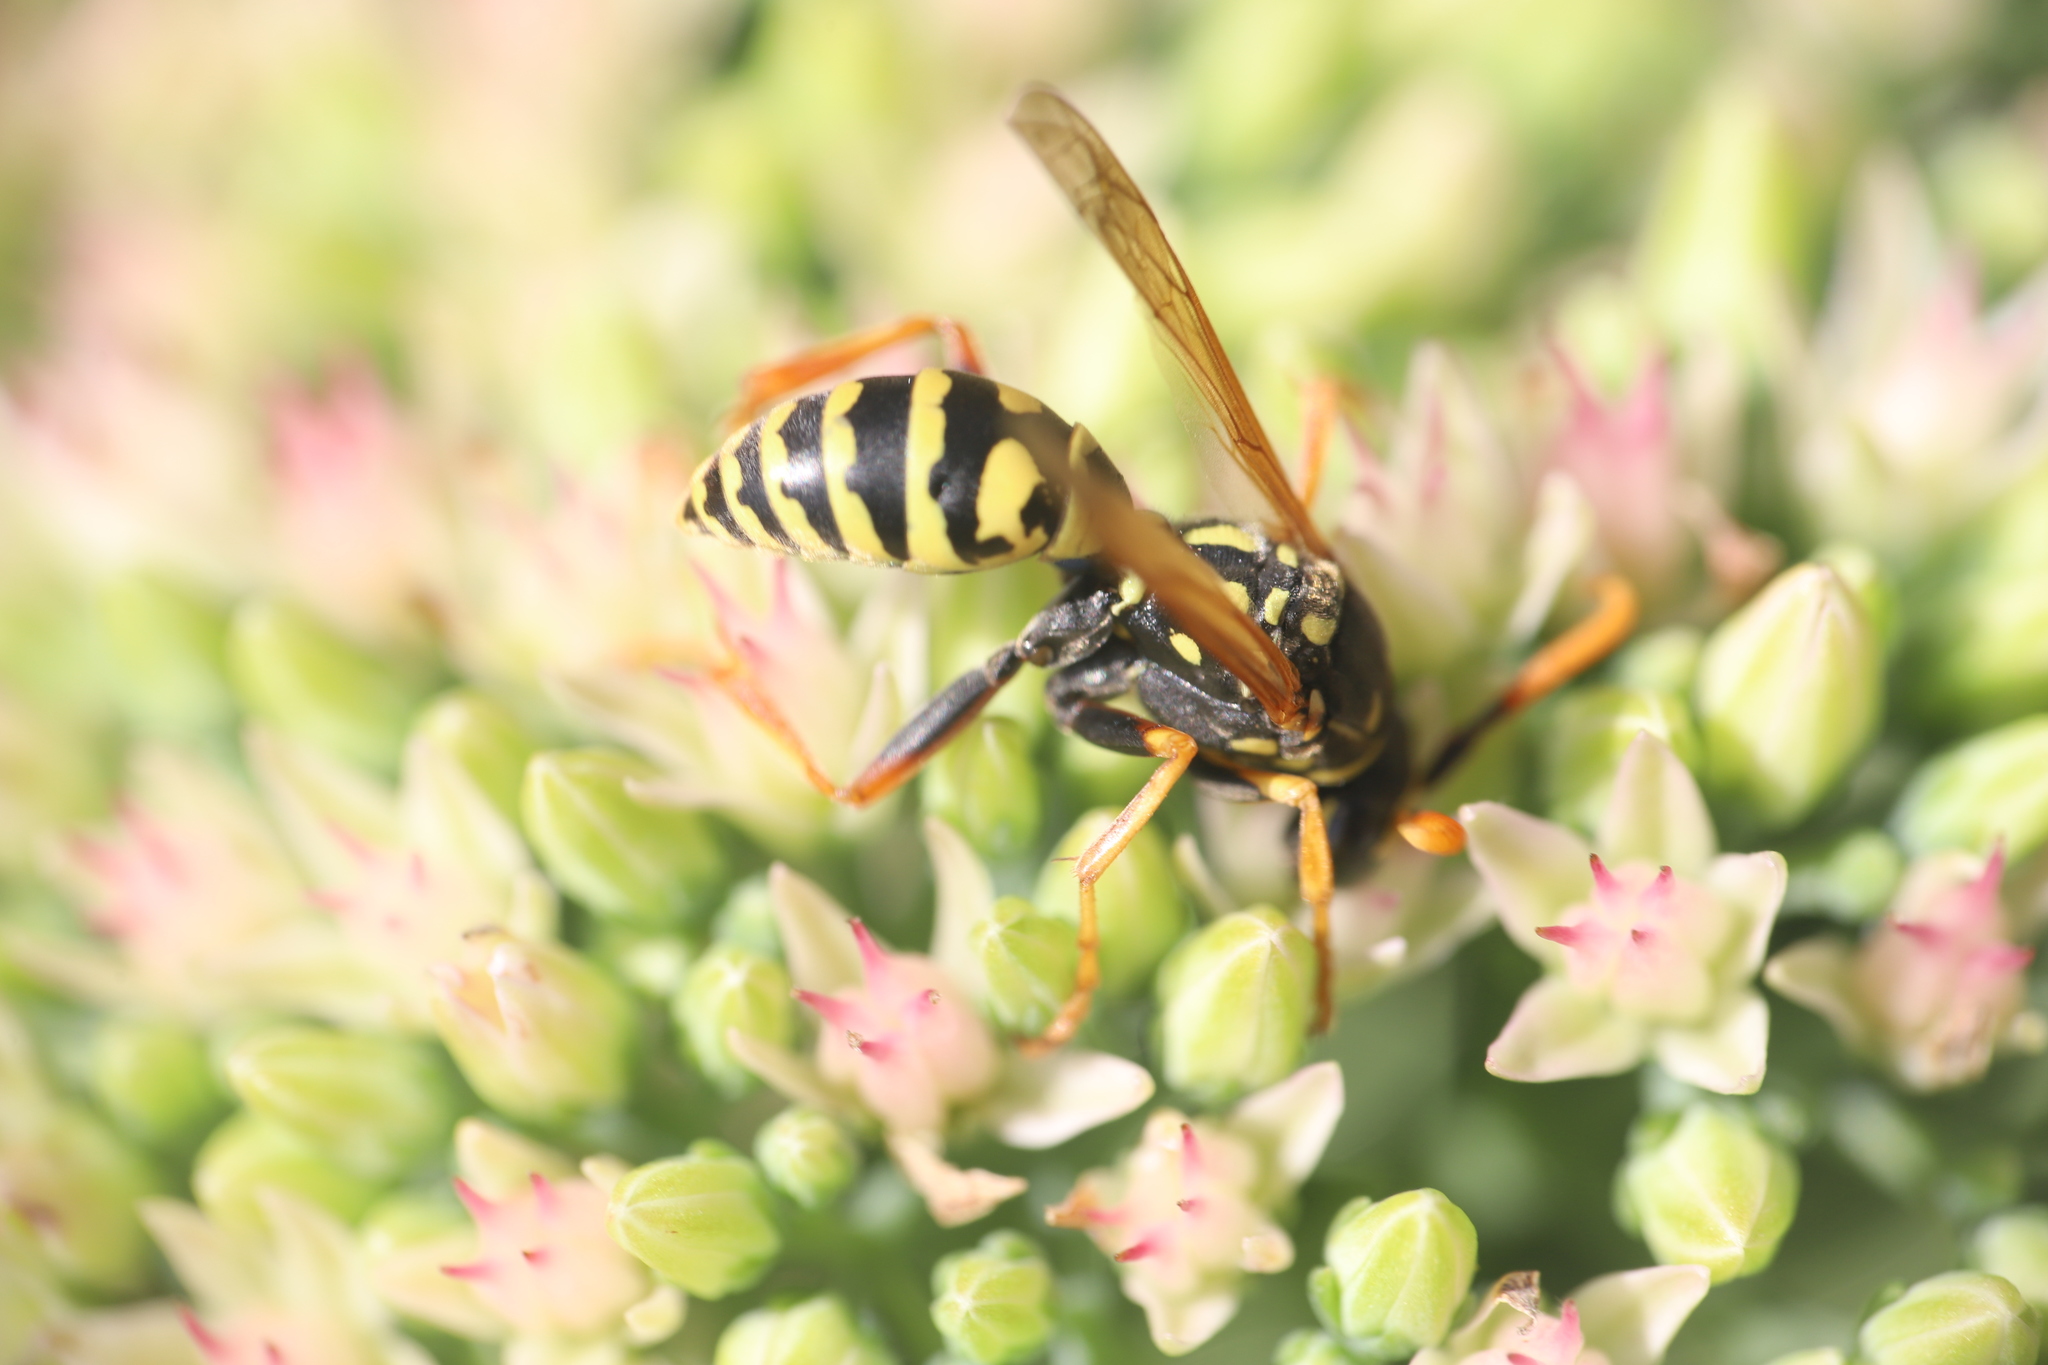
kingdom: Animalia
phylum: Arthropoda
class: Insecta
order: Hymenoptera
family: Eumenidae
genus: Polistes
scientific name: Polistes dominula
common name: Paper wasp
